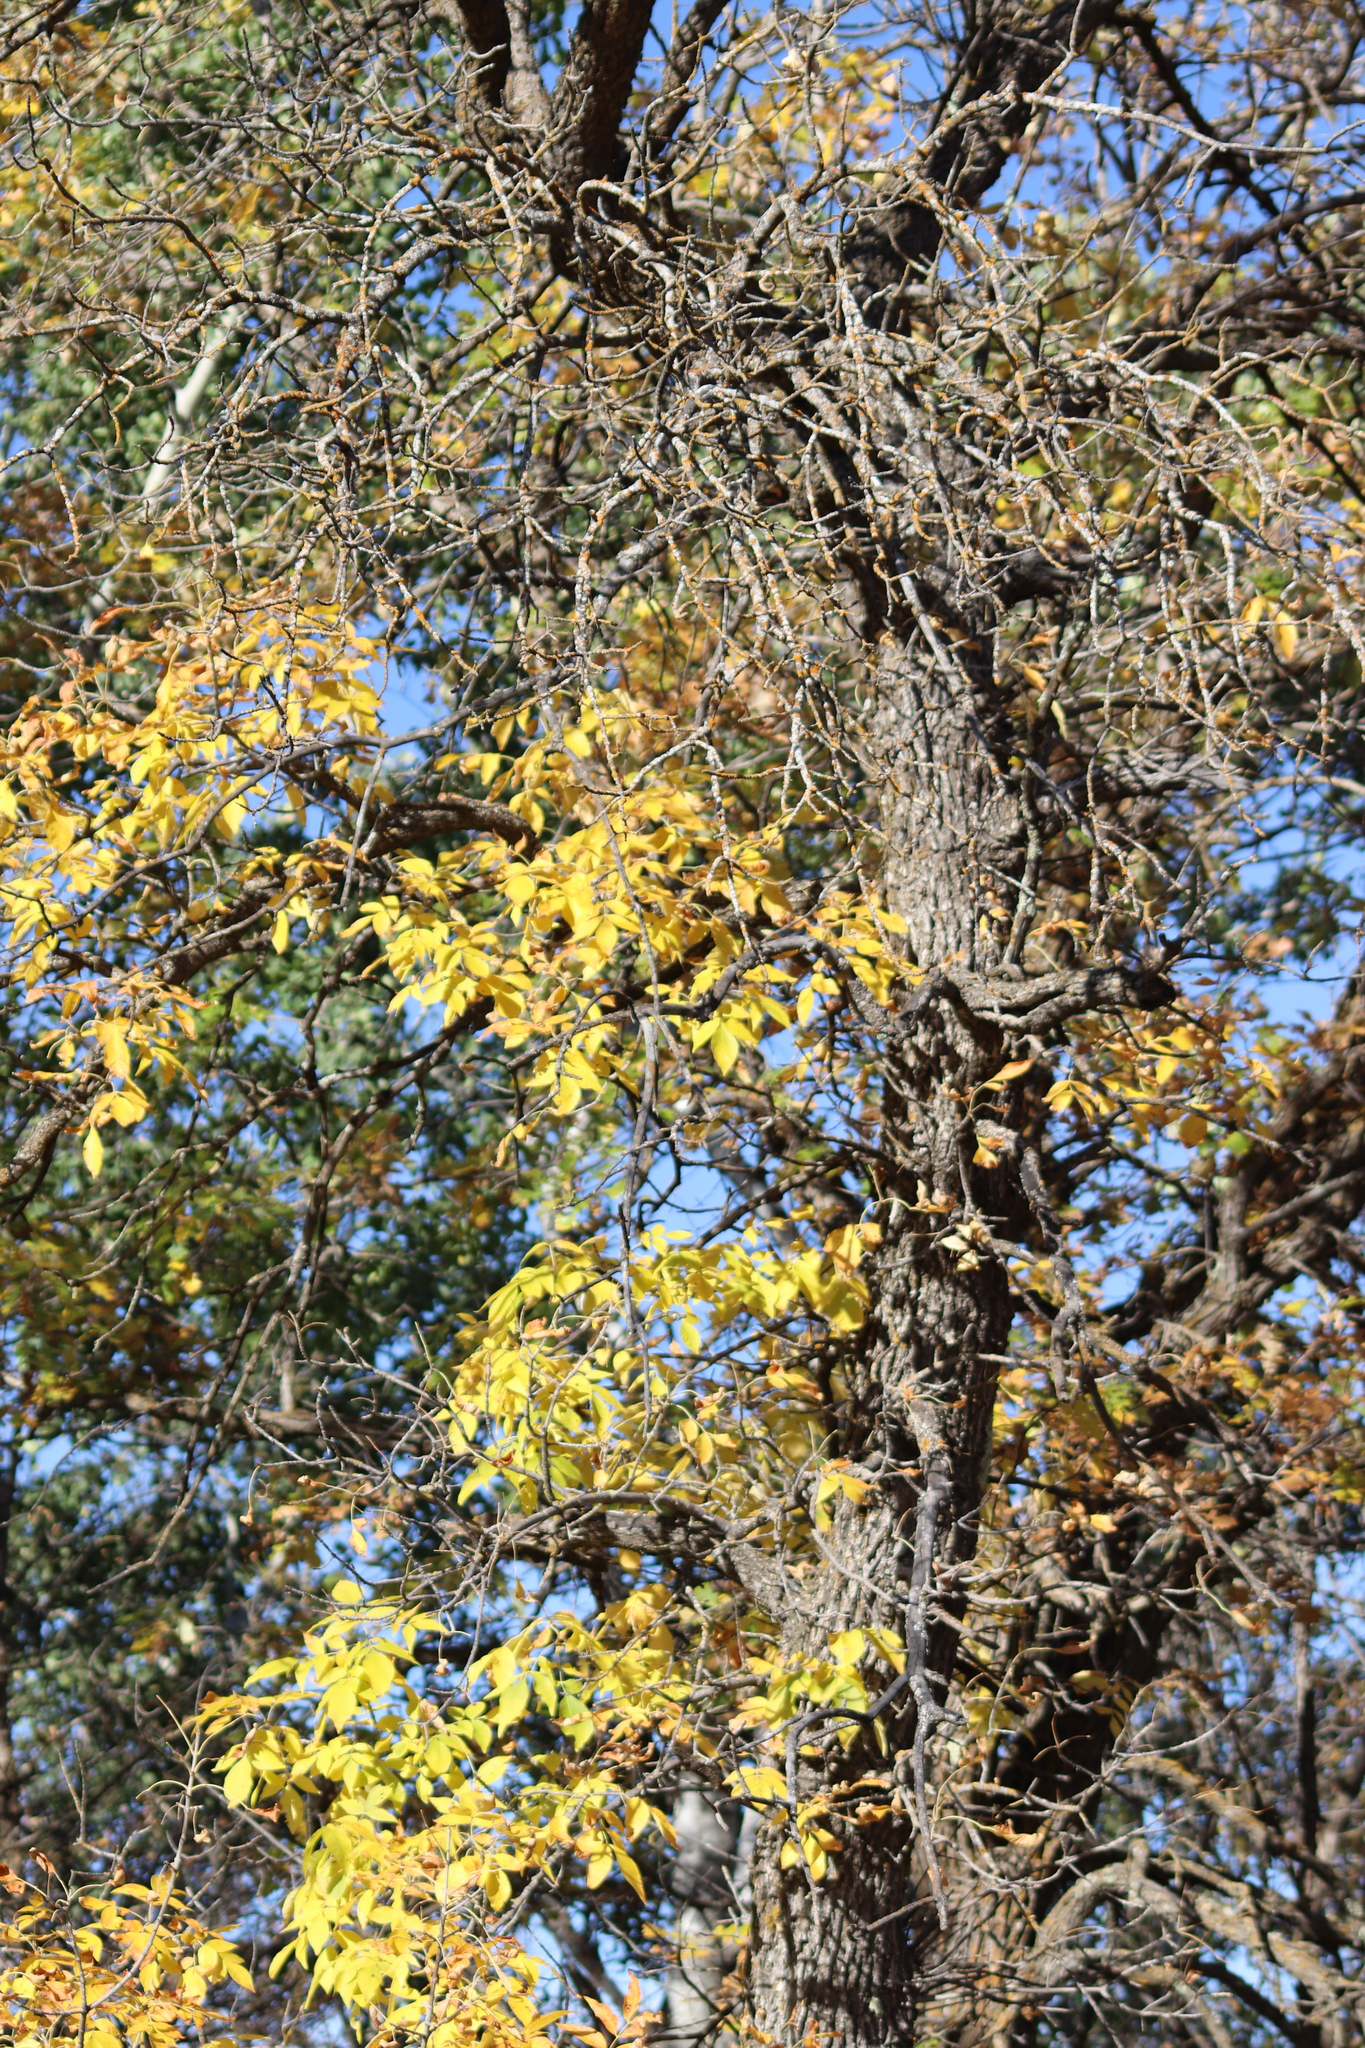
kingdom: Plantae
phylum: Tracheophyta
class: Magnoliopsida
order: Lamiales
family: Oleaceae
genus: Fraxinus
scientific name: Fraxinus pennsylvanica
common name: Green ash
